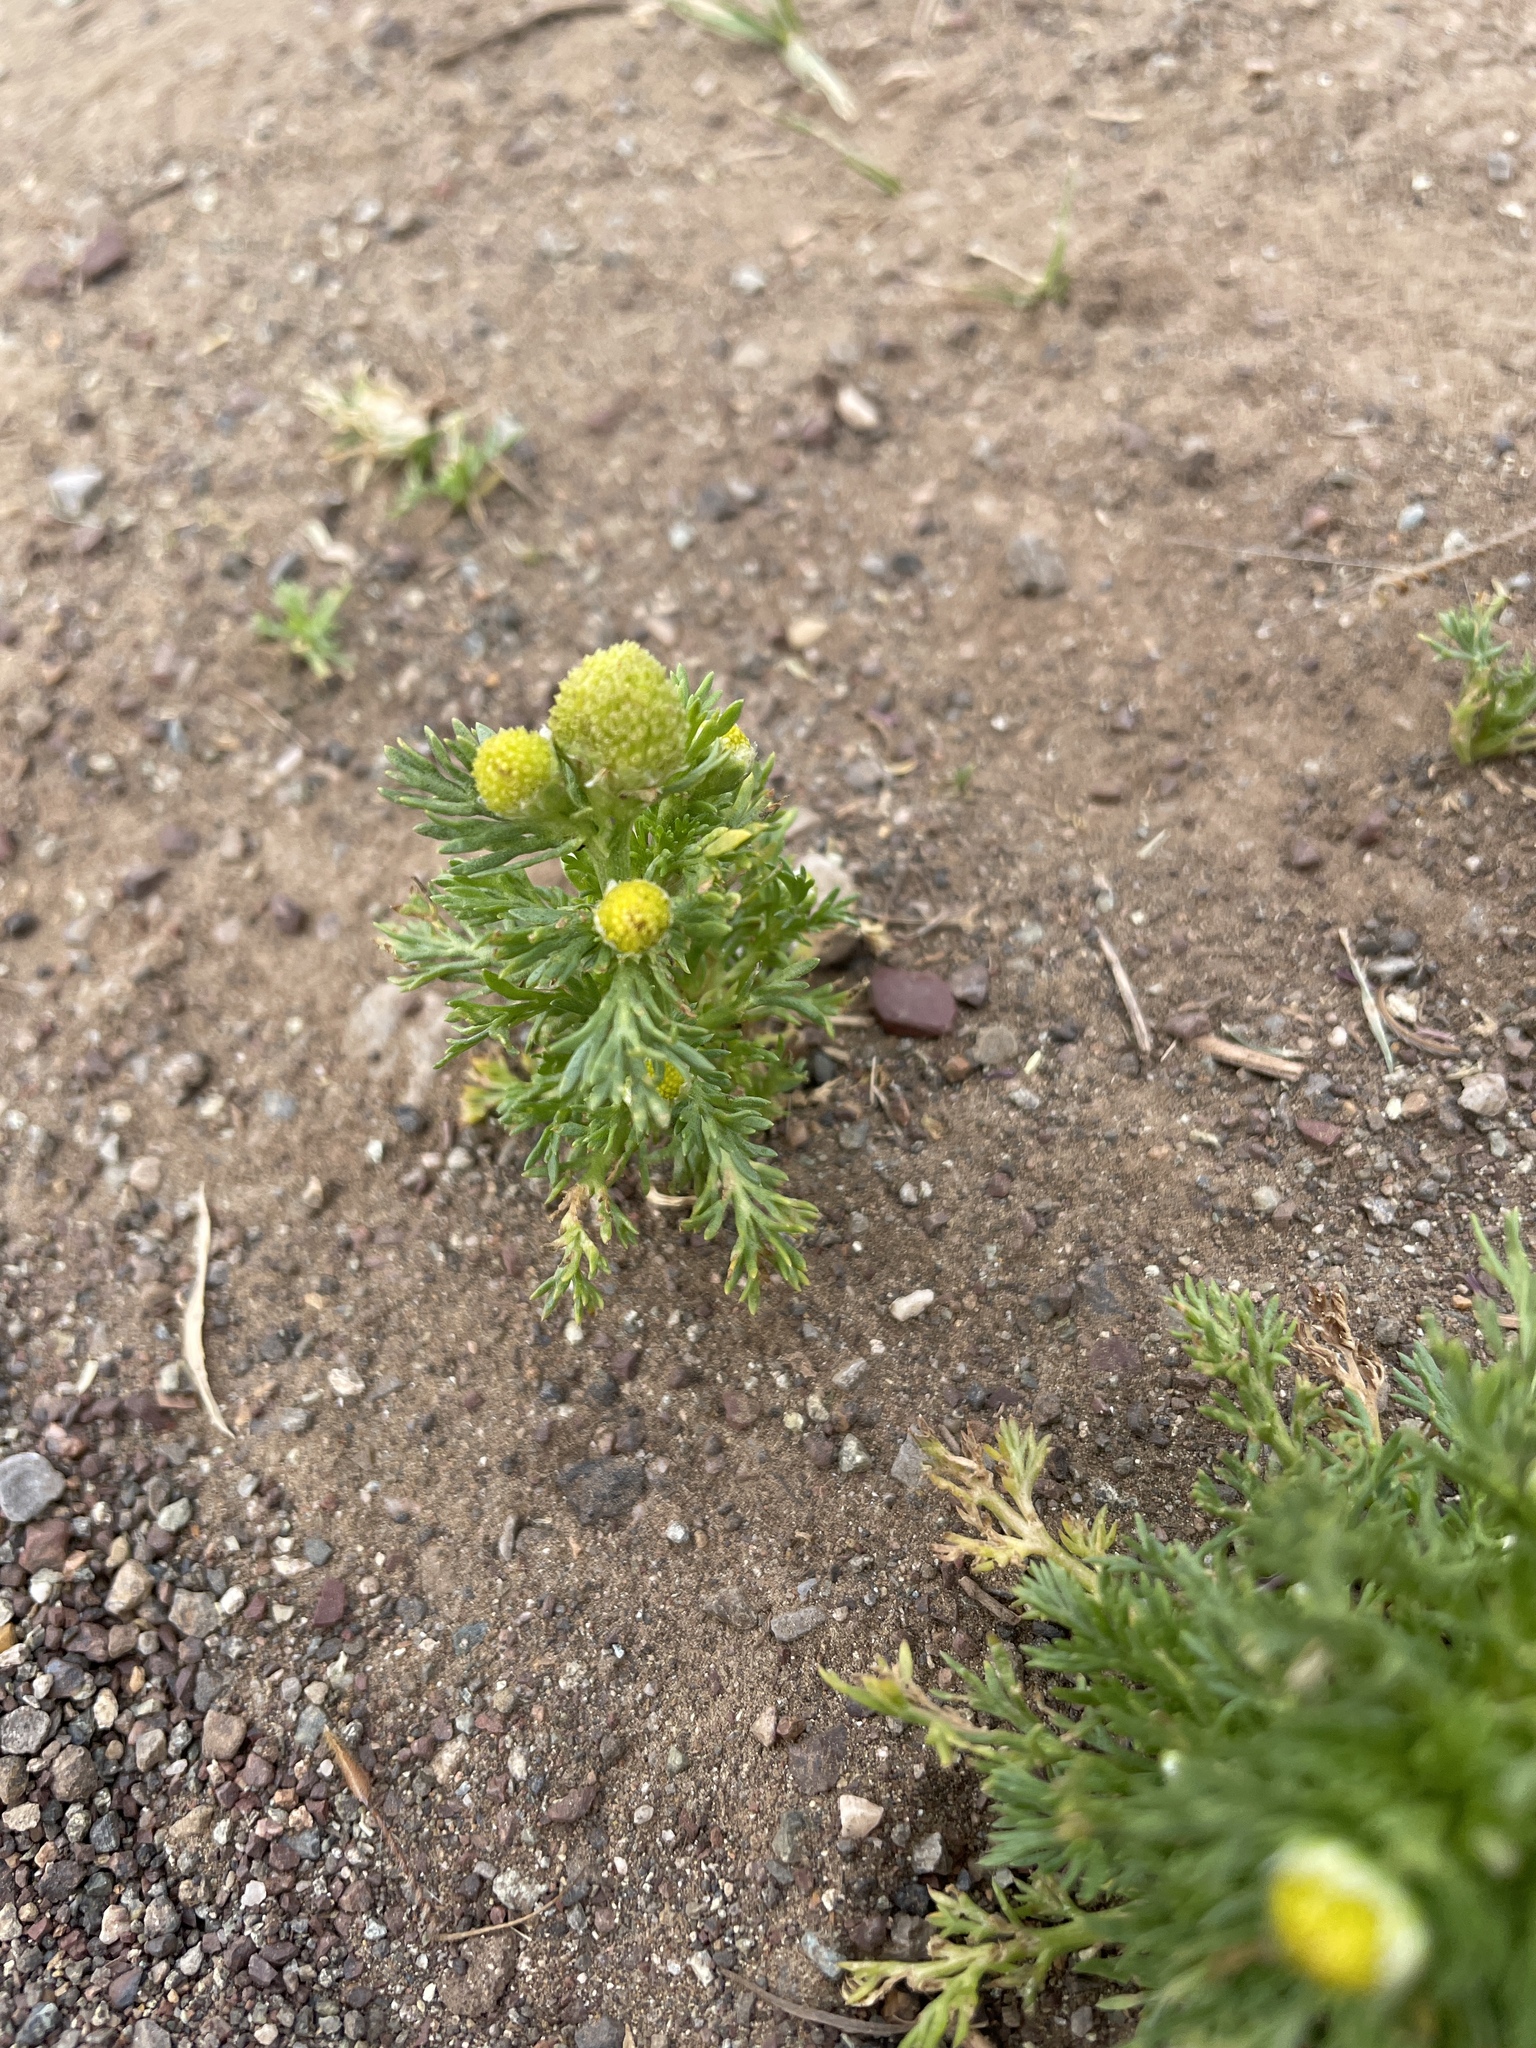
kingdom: Plantae
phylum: Tracheophyta
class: Magnoliopsida
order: Asterales
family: Asteraceae
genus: Matricaria
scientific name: Matricaria discoidea
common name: Disc mayweed
